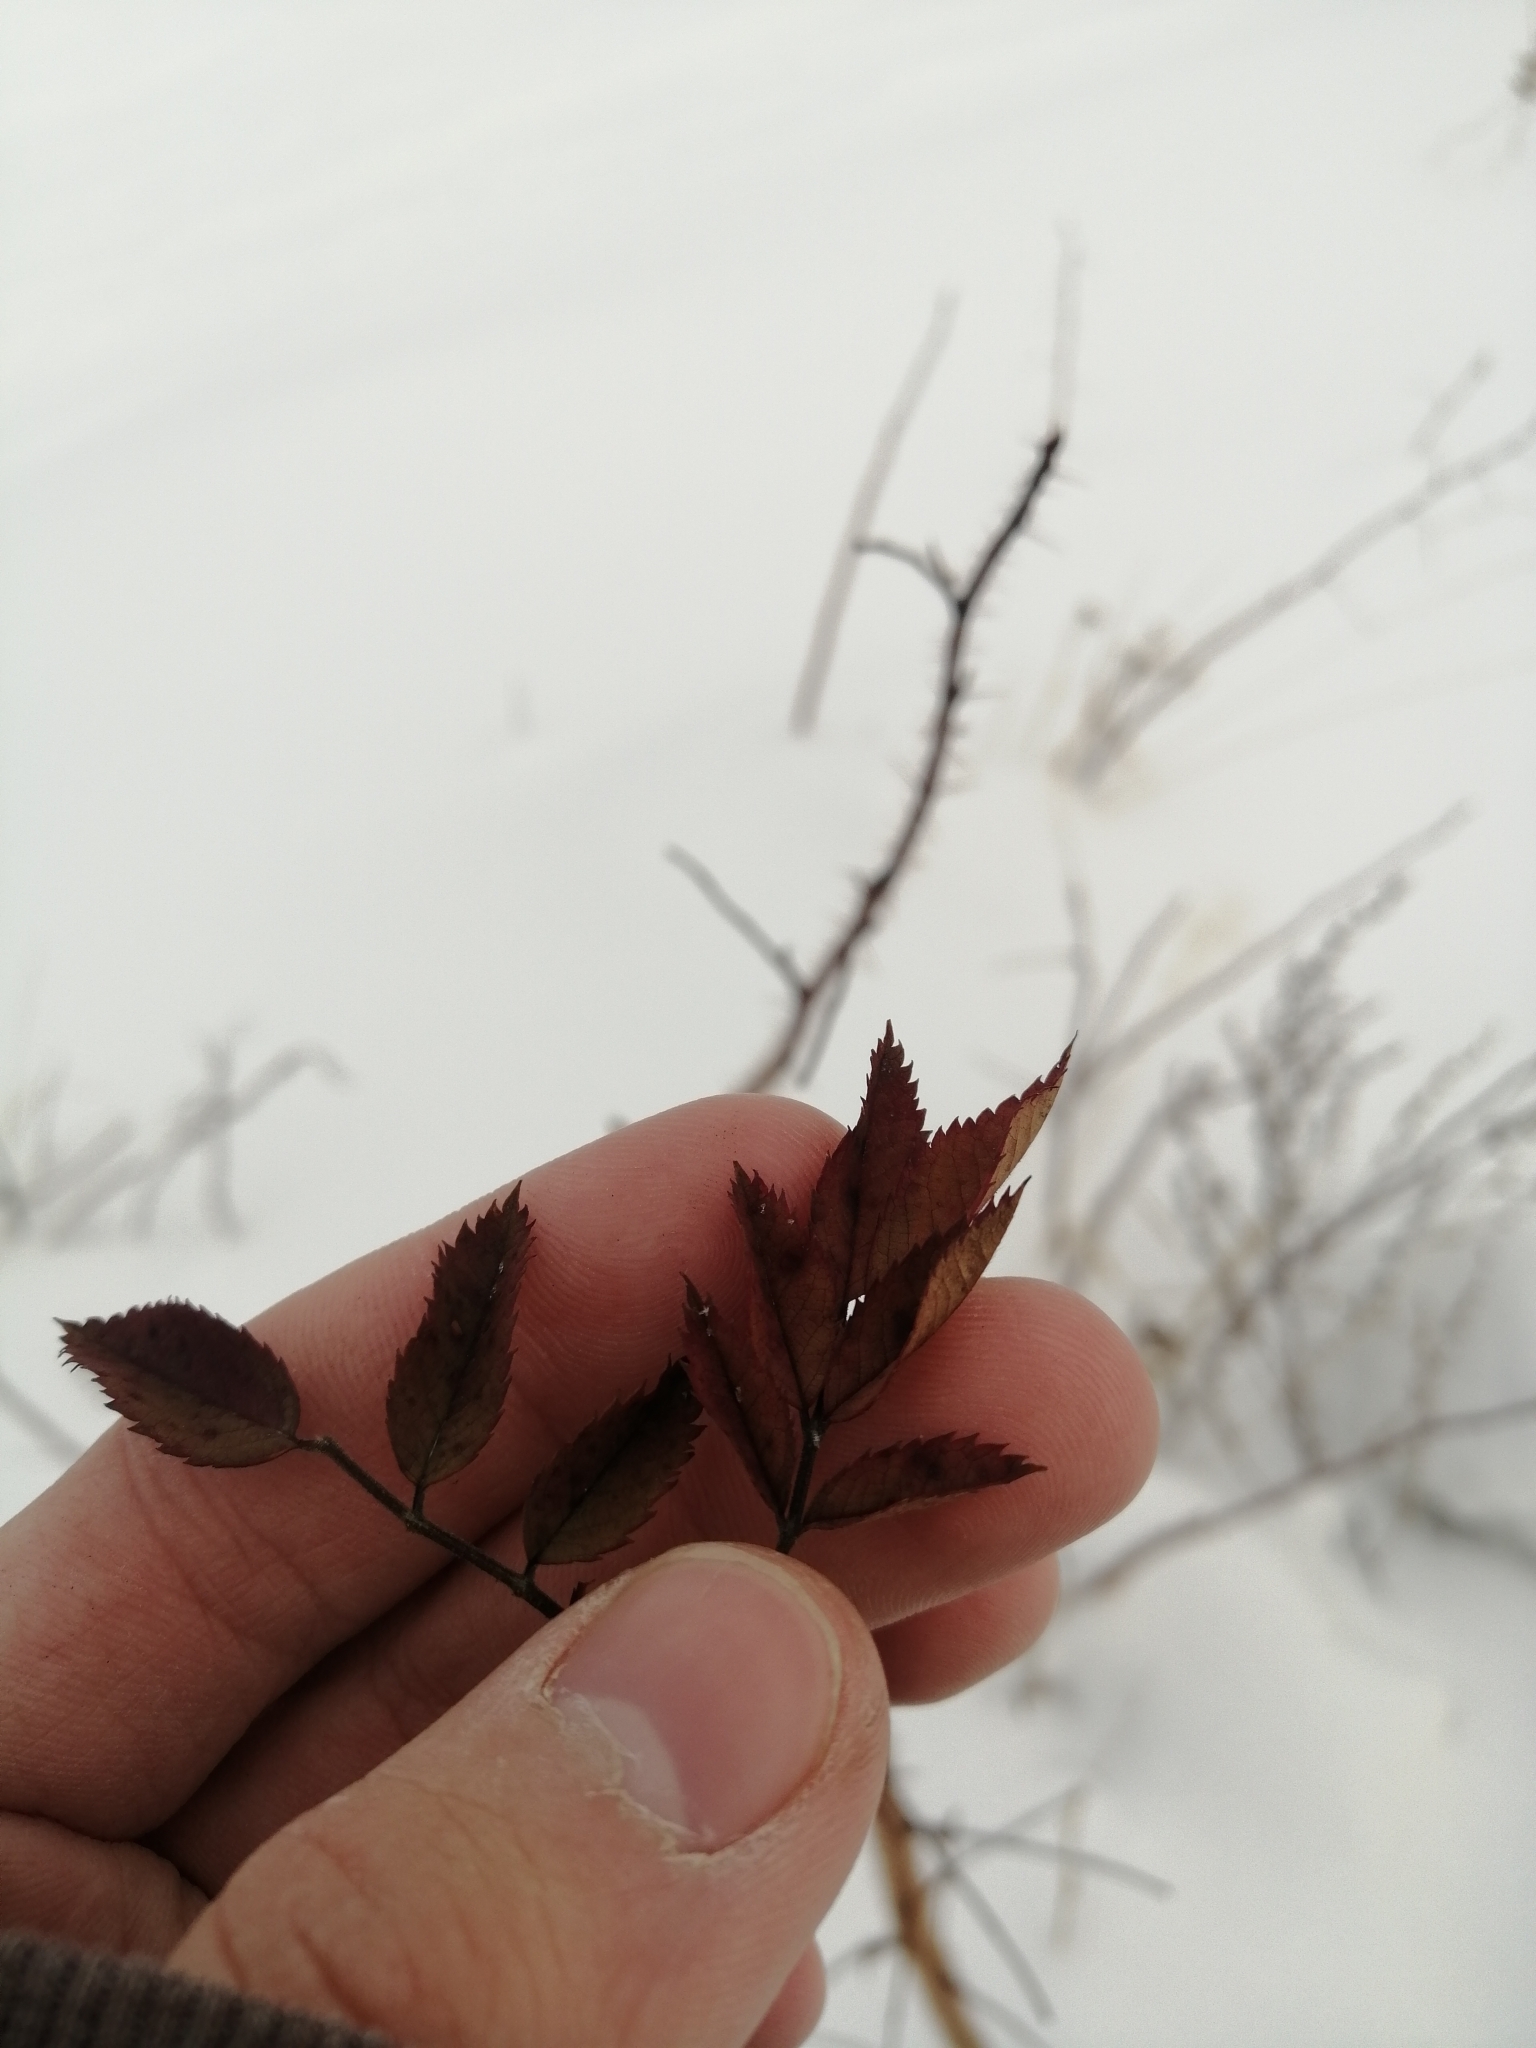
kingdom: Plantae
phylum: Tracheophyta
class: Magnoliopsida
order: Rosales
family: Rosaceae
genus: Rosa
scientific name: Rosa acicularis
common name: Prickly rose
